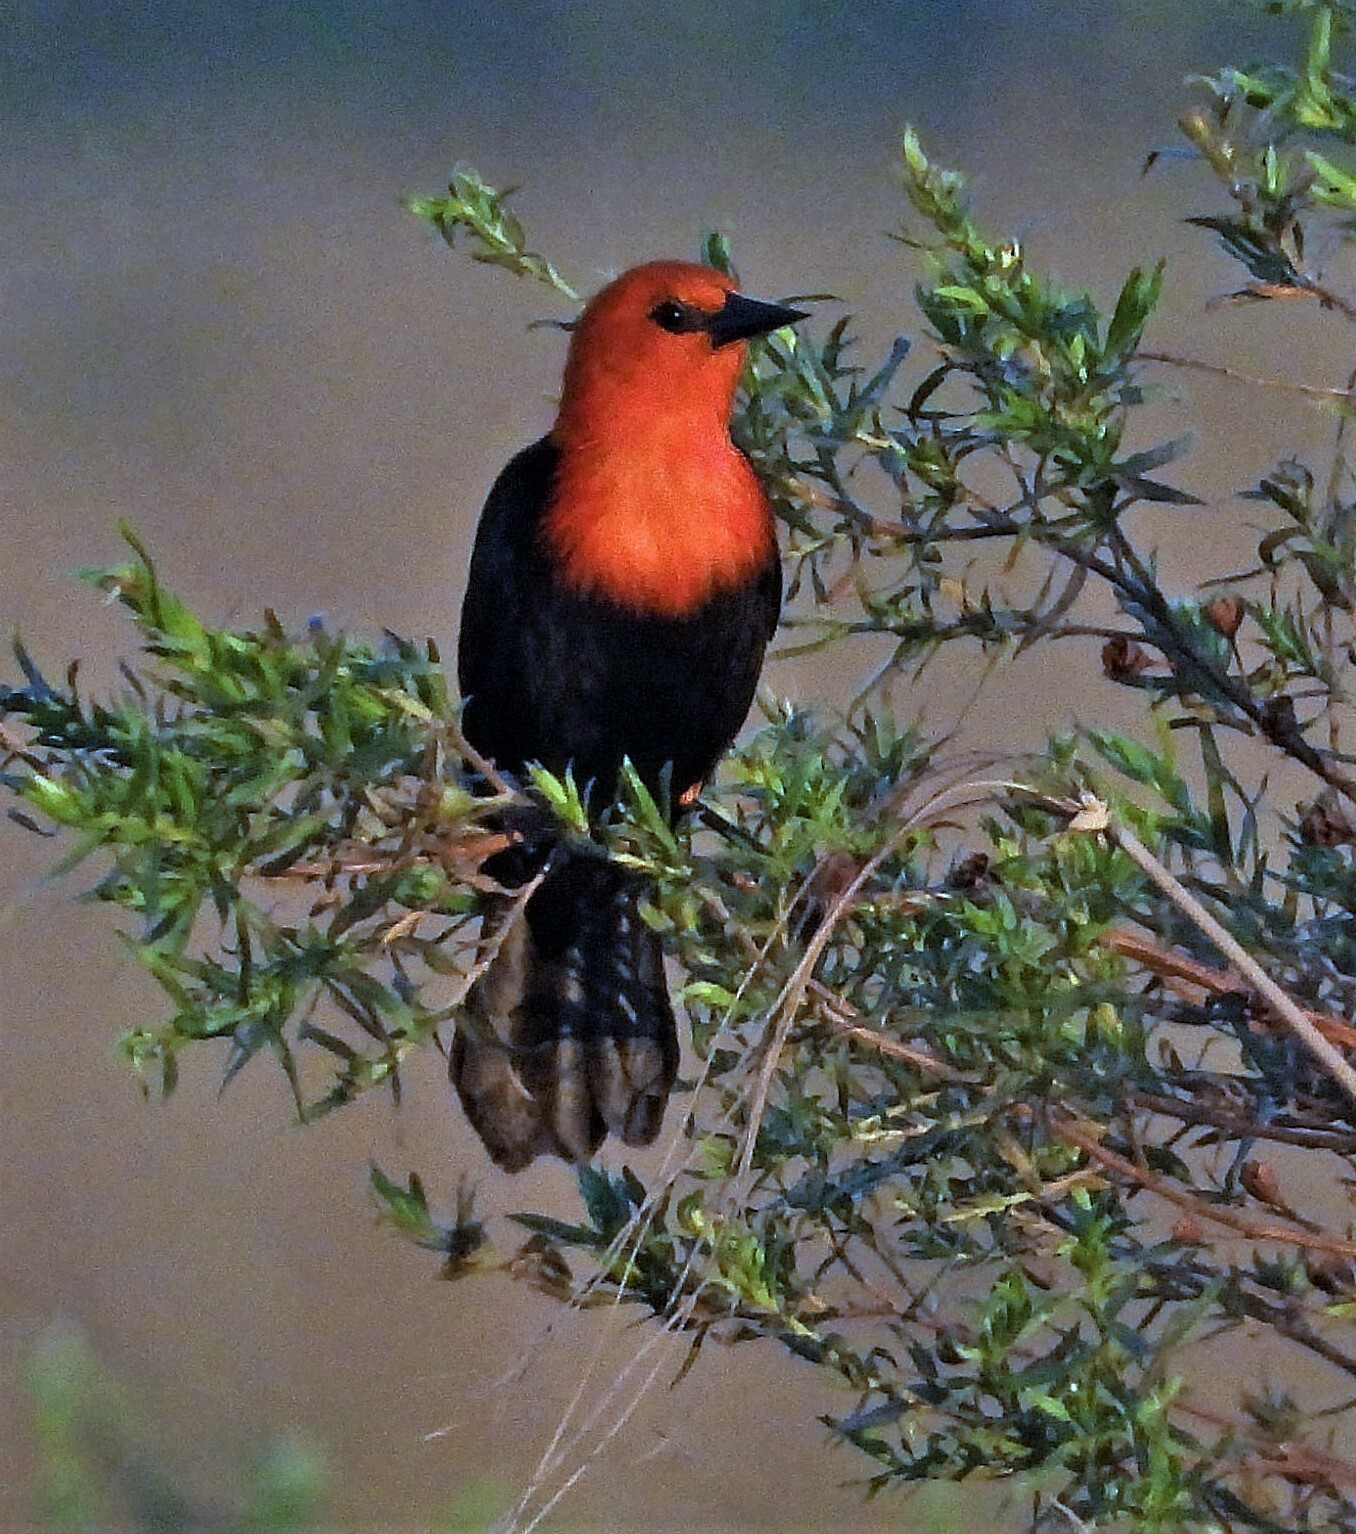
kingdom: Animalia
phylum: Chordata
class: Aves
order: Passeriformes
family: Icteridae
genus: Amblyramphus
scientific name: Amblyramphus holosericeus
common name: Scarlet-headed blackbird
